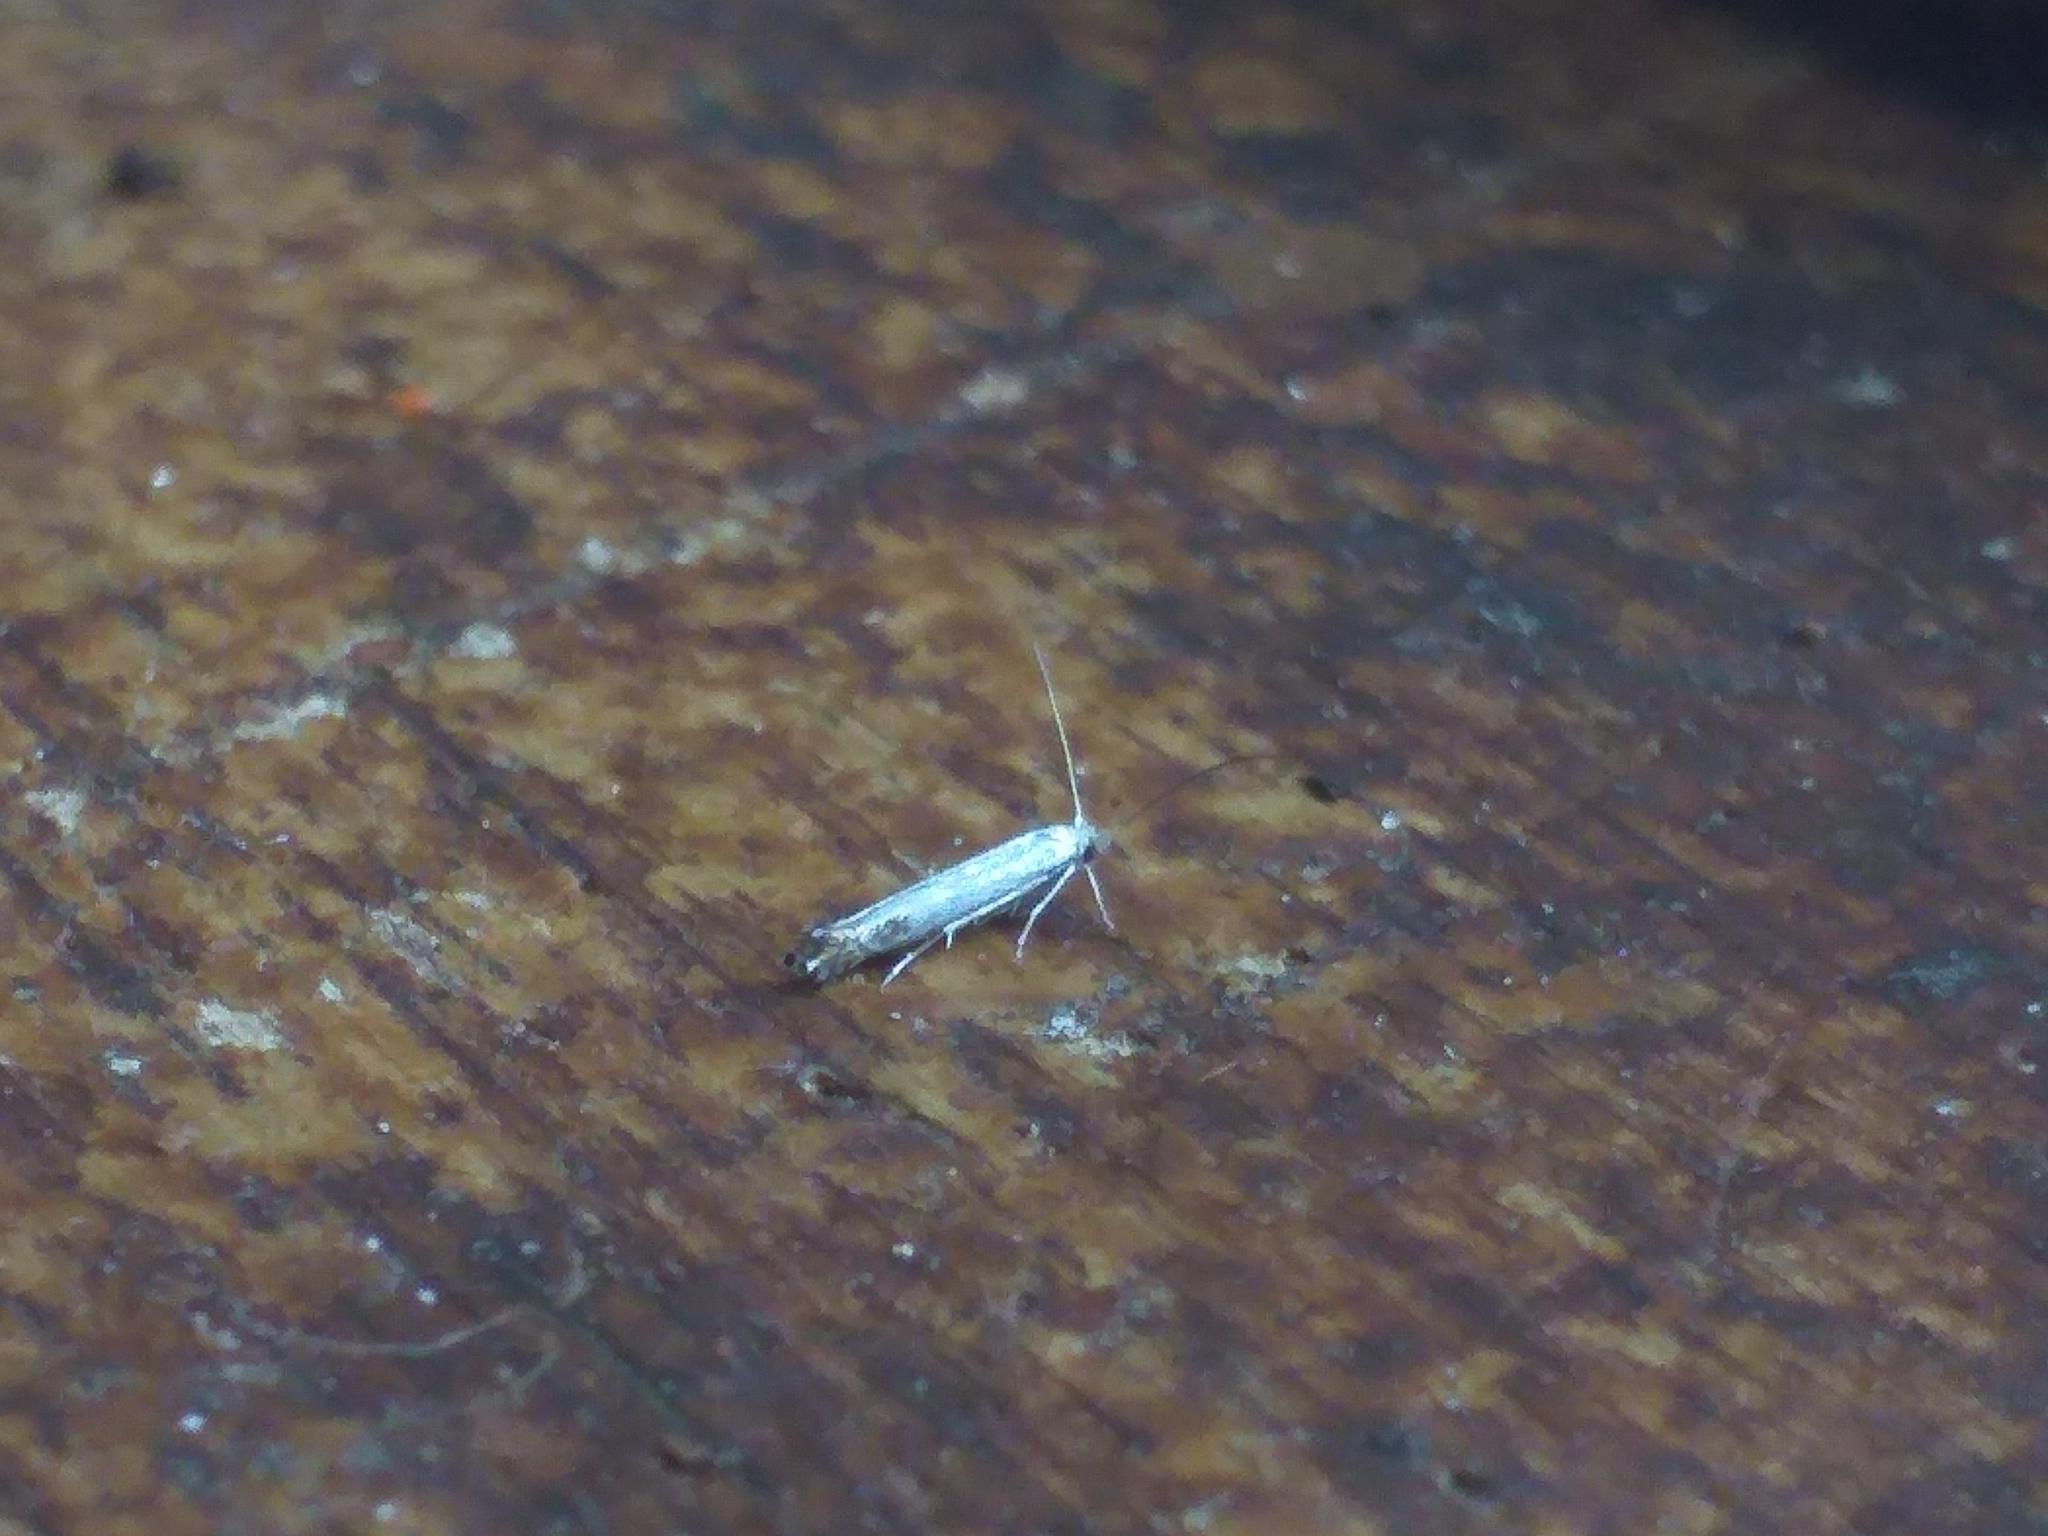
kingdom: Animalia
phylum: Arthropoda
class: Insecta
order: Lepidoptera
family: Lyonetiidae
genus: Lyonetia
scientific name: Lyonetia clerkella
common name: Apple leaf miner
